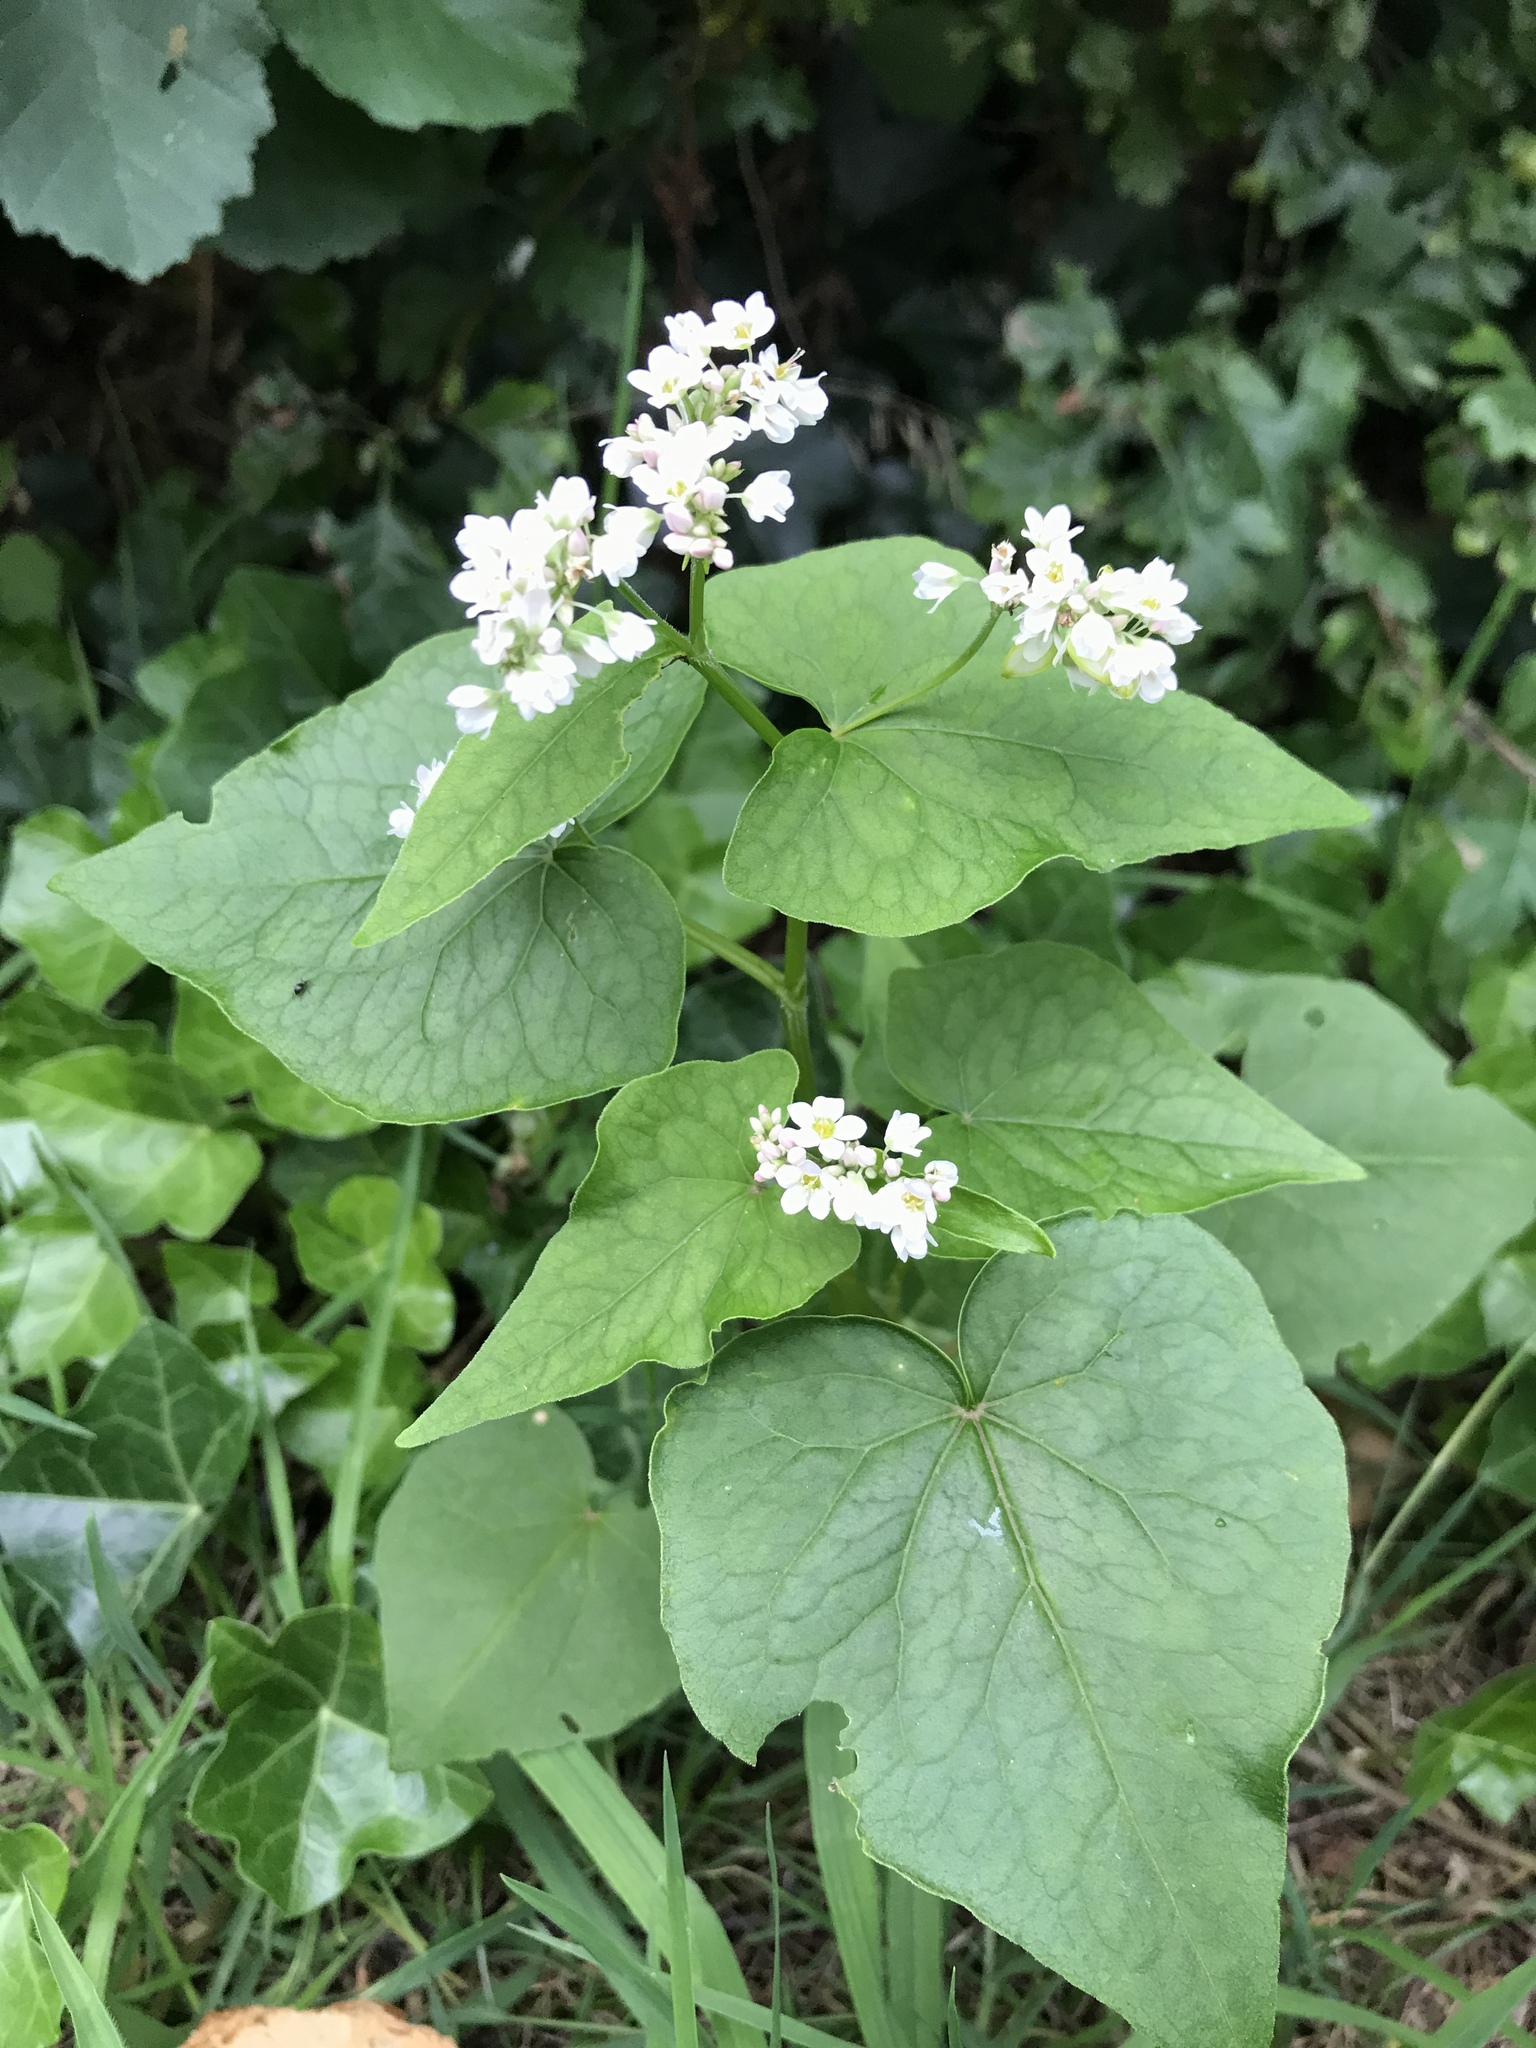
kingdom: Plantae
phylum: Tracheophyta
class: Magnoliopsida
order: Caryophyllales
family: Polygonaceae
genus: Fagopyrum
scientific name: Fagopyrum esculentum
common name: Buckwheat
